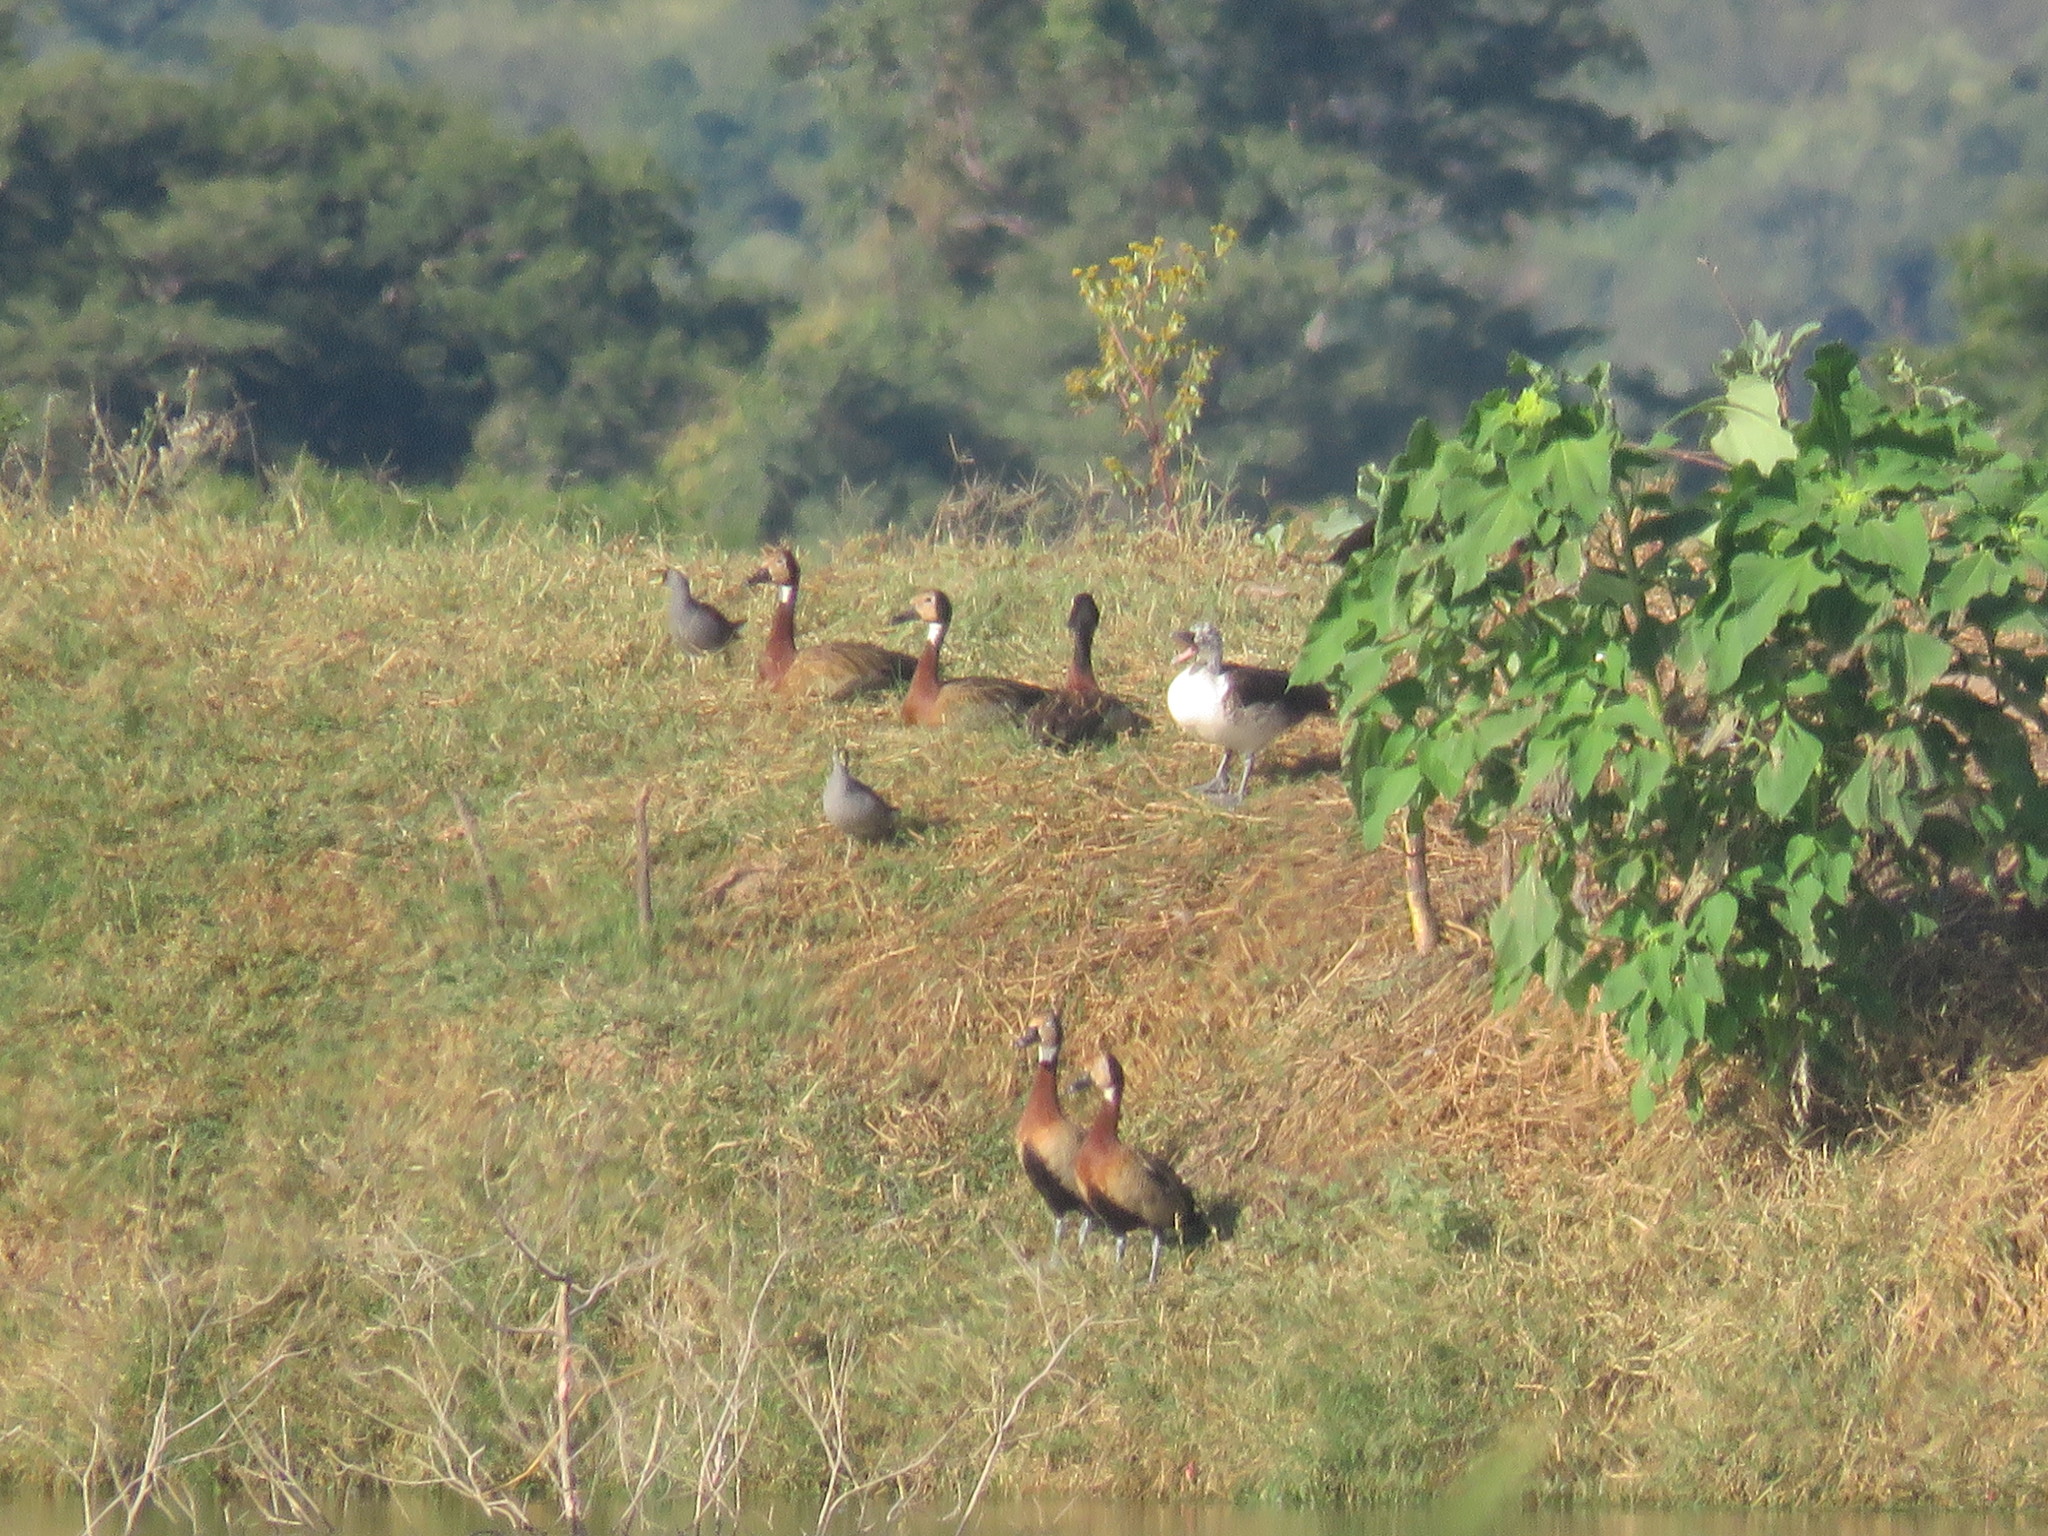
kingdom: Animalia
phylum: Chordata
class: Aves
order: Anseriformes
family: Anatidae
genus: Sarkidiornis
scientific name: Sarkidiornis sylvicola
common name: Comb duck
